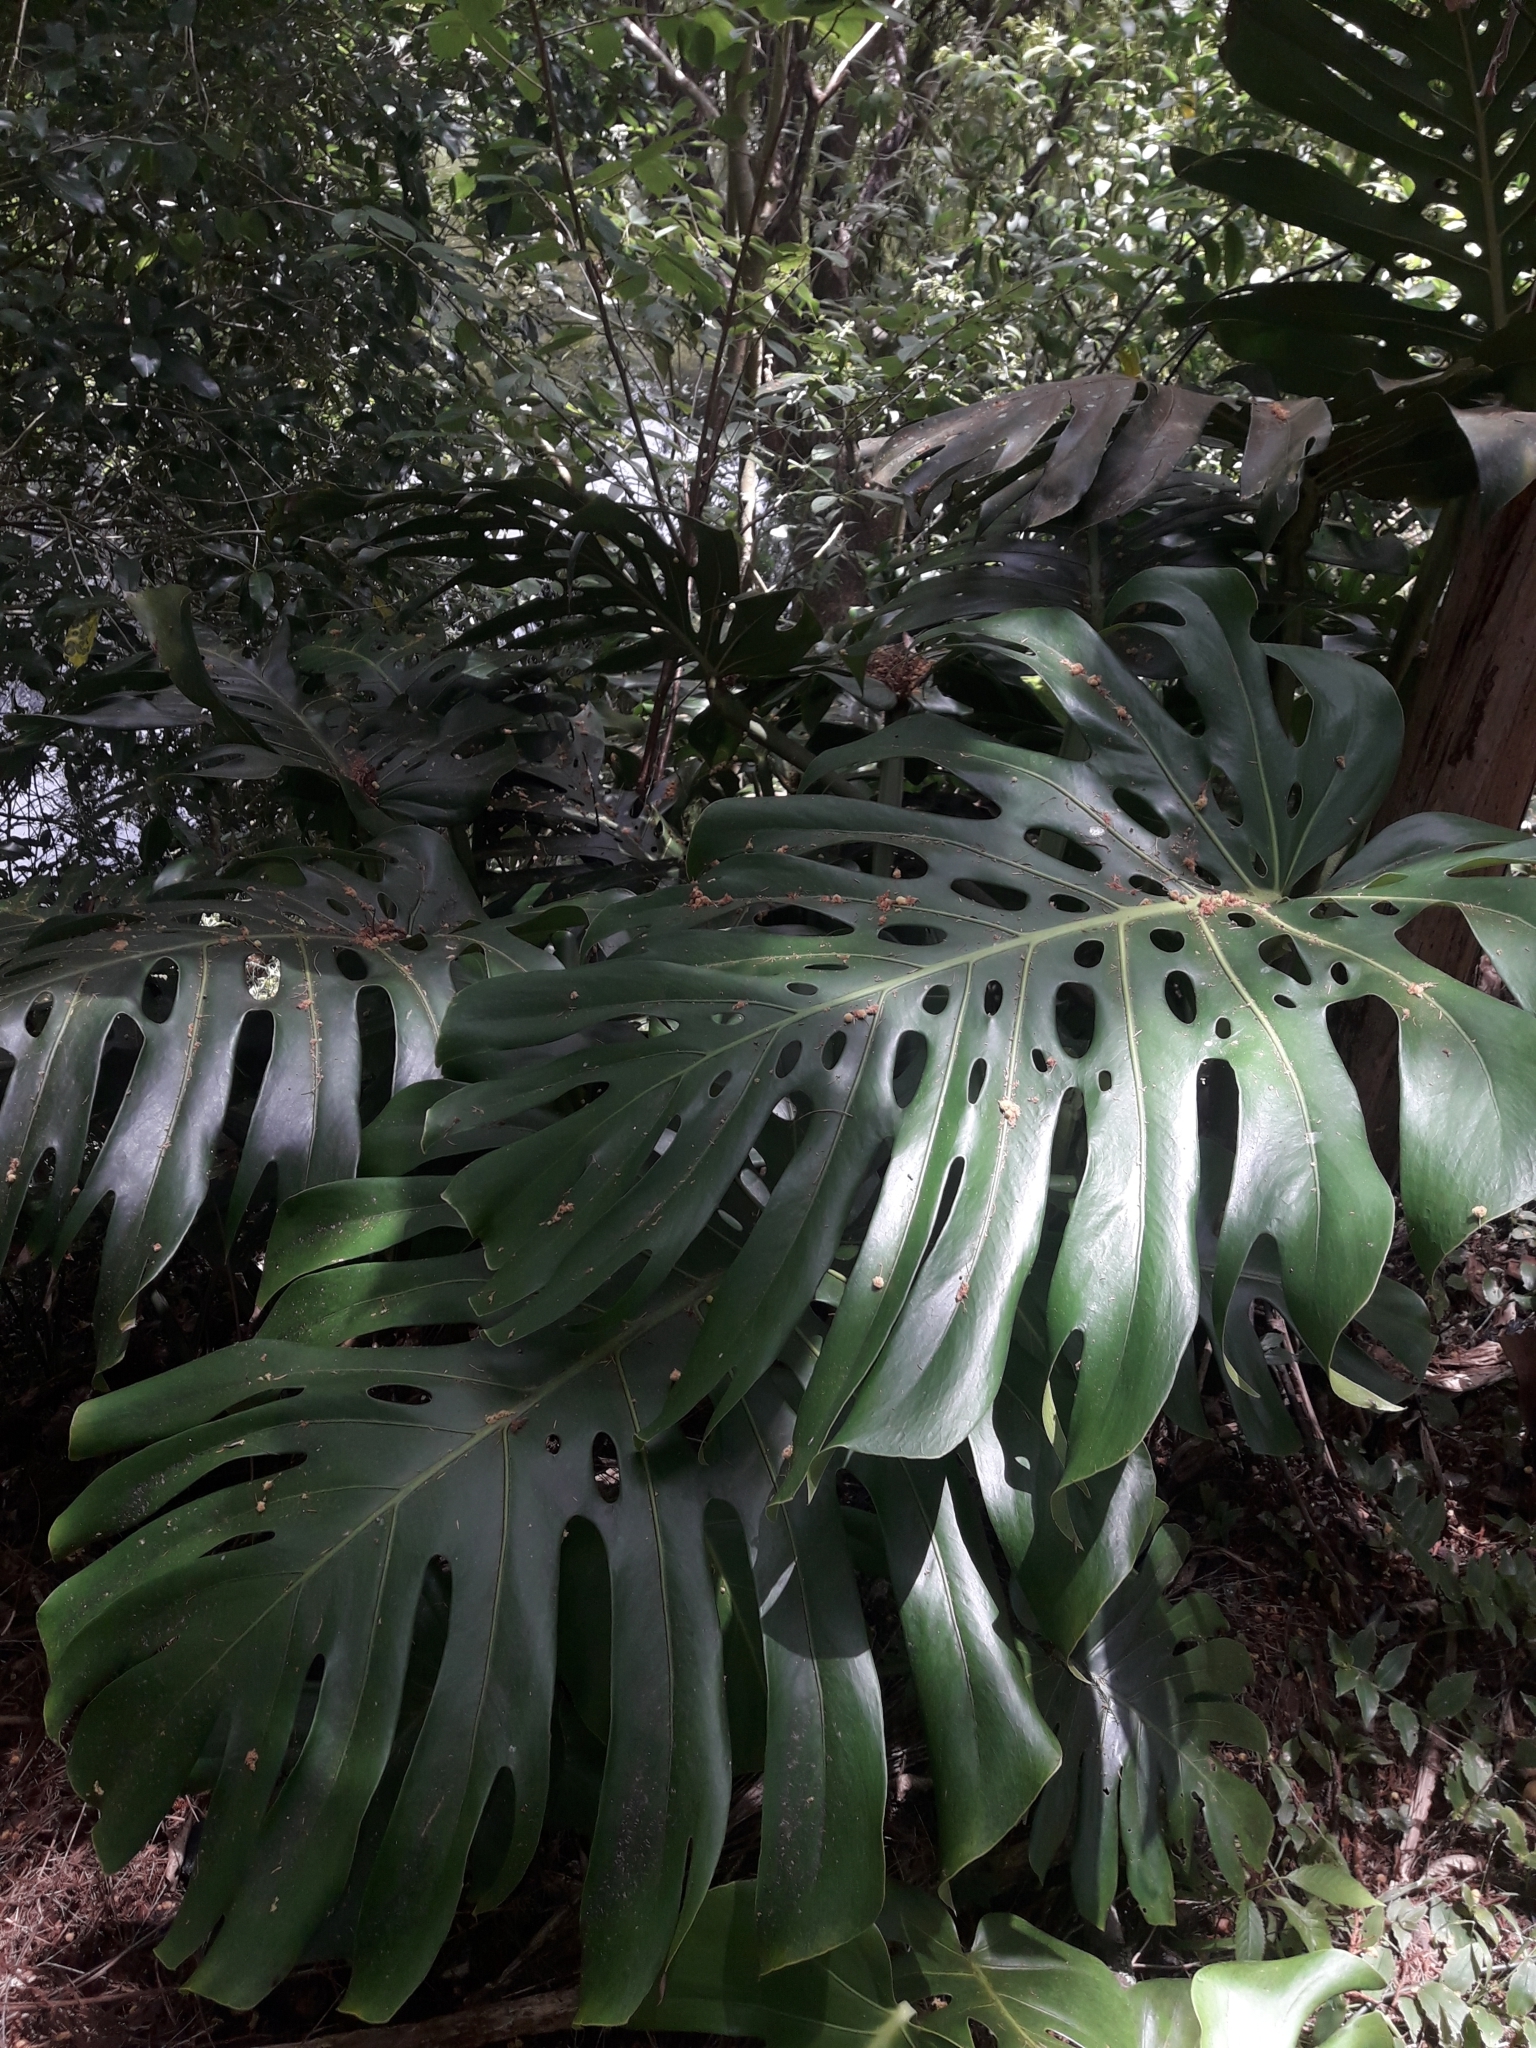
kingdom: Plantae
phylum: Tracheophyta
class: Liliopsida
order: Alismatales
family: Araceae
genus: Monstera
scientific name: Monstera deliciosa
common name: Cut-leaf-philodendron
